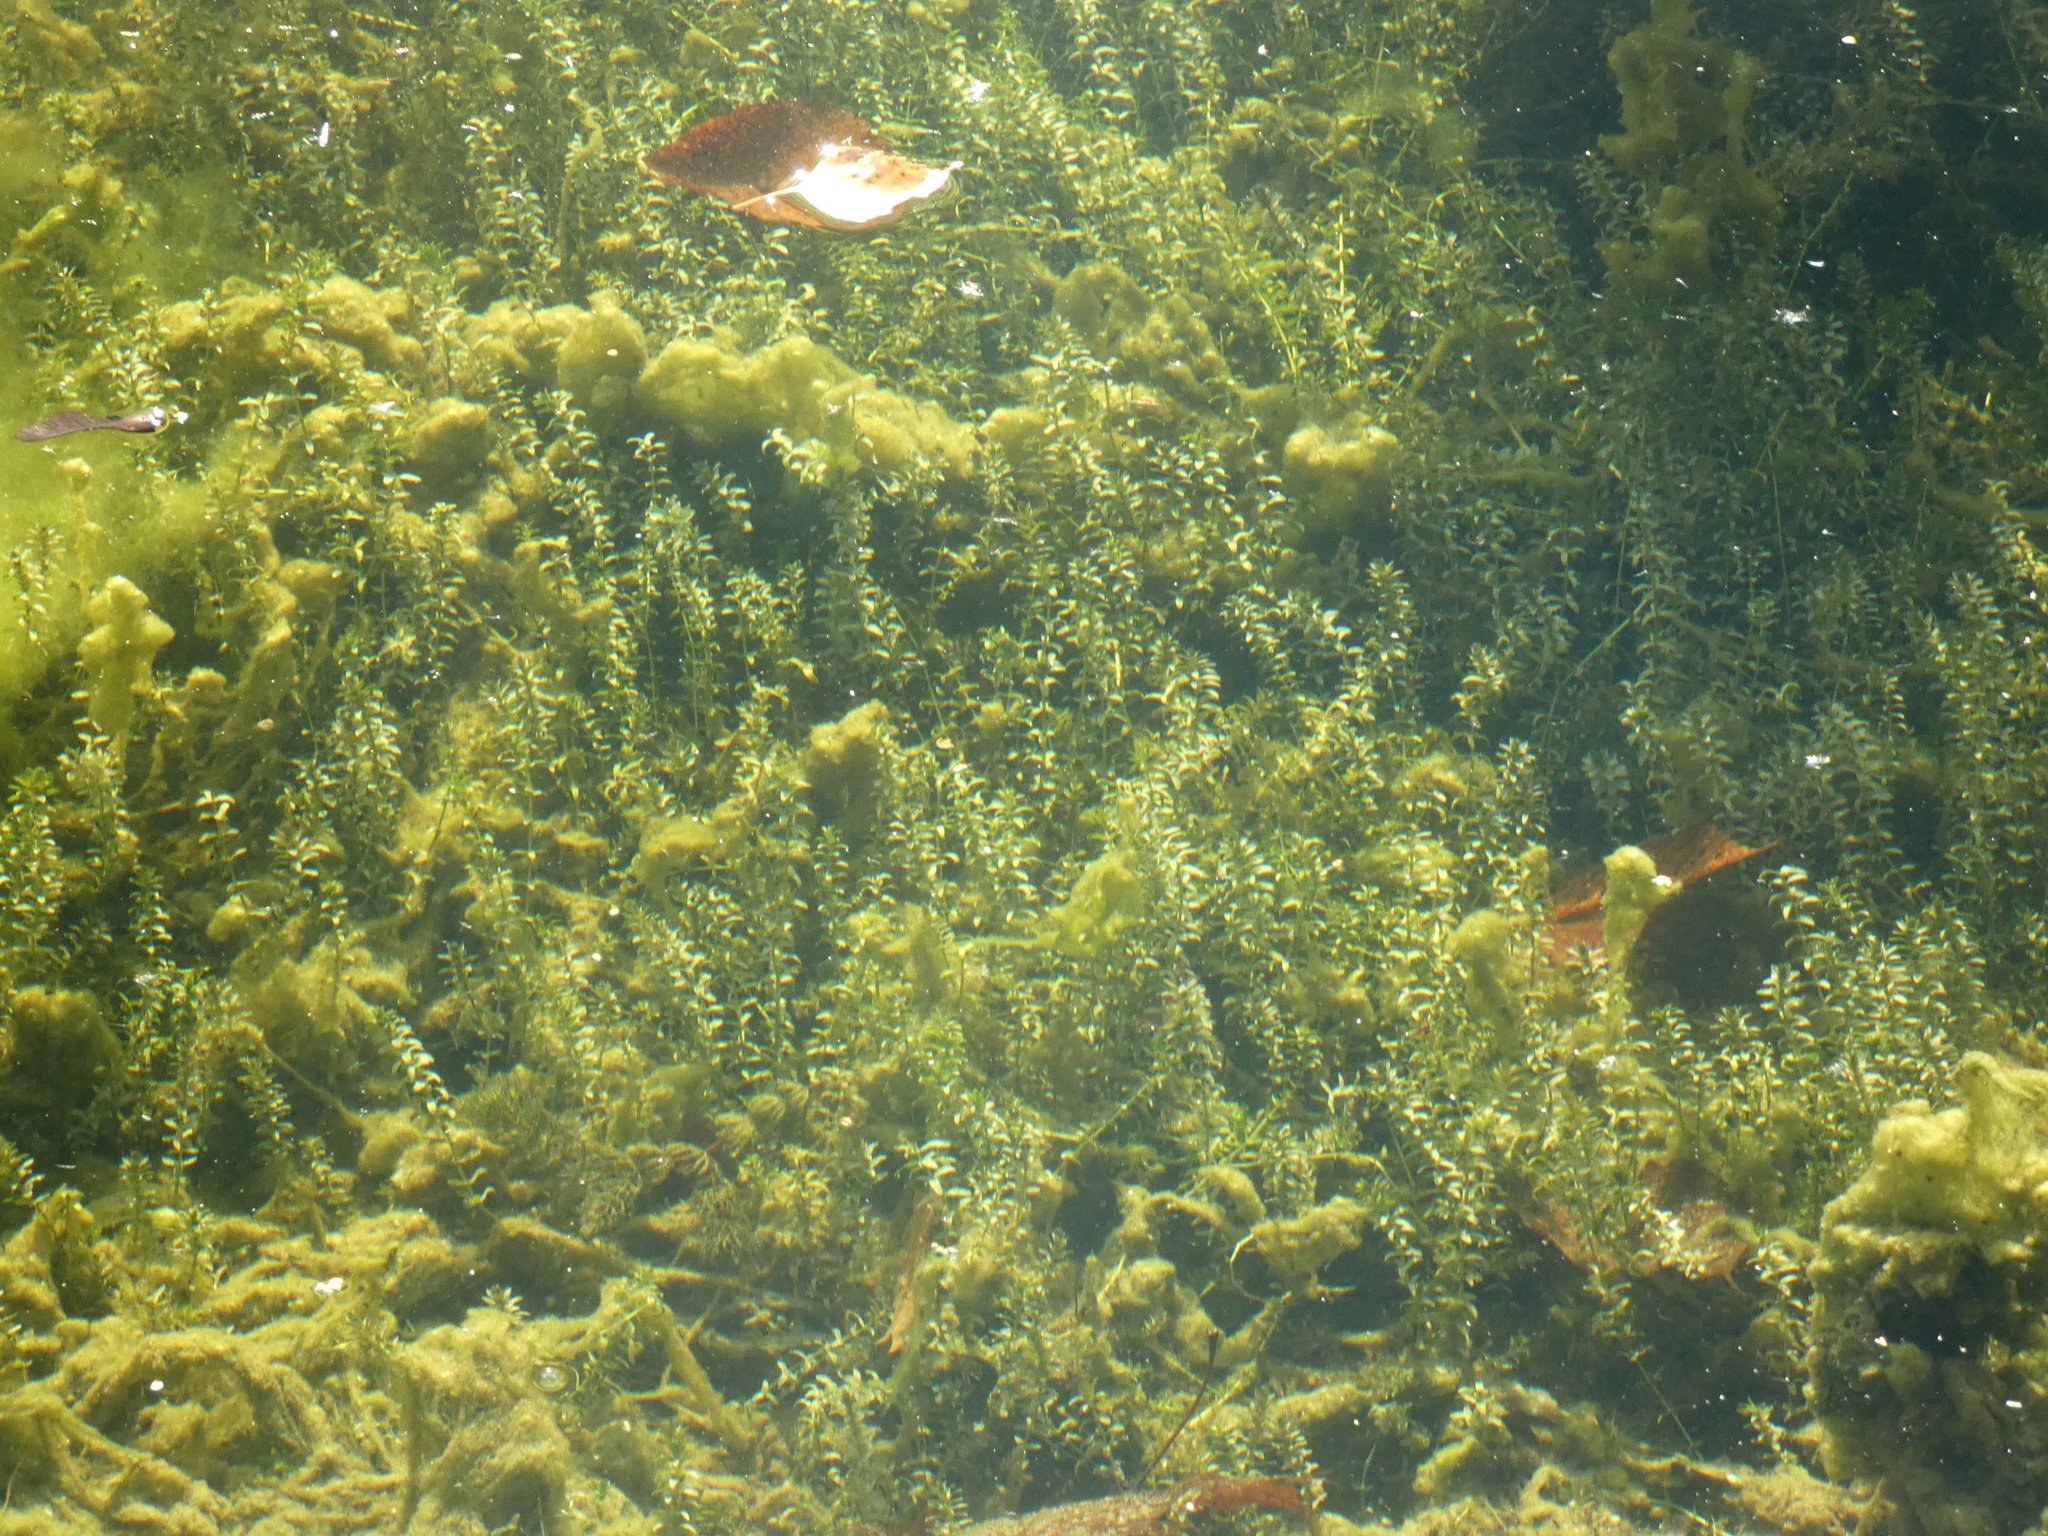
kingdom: Plantae
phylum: Tracheophyta
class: Liliopsida
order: Alismatales
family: Hydrocharitaceae
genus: Elodea
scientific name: Elodea canadensis
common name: Canadian waterweed
